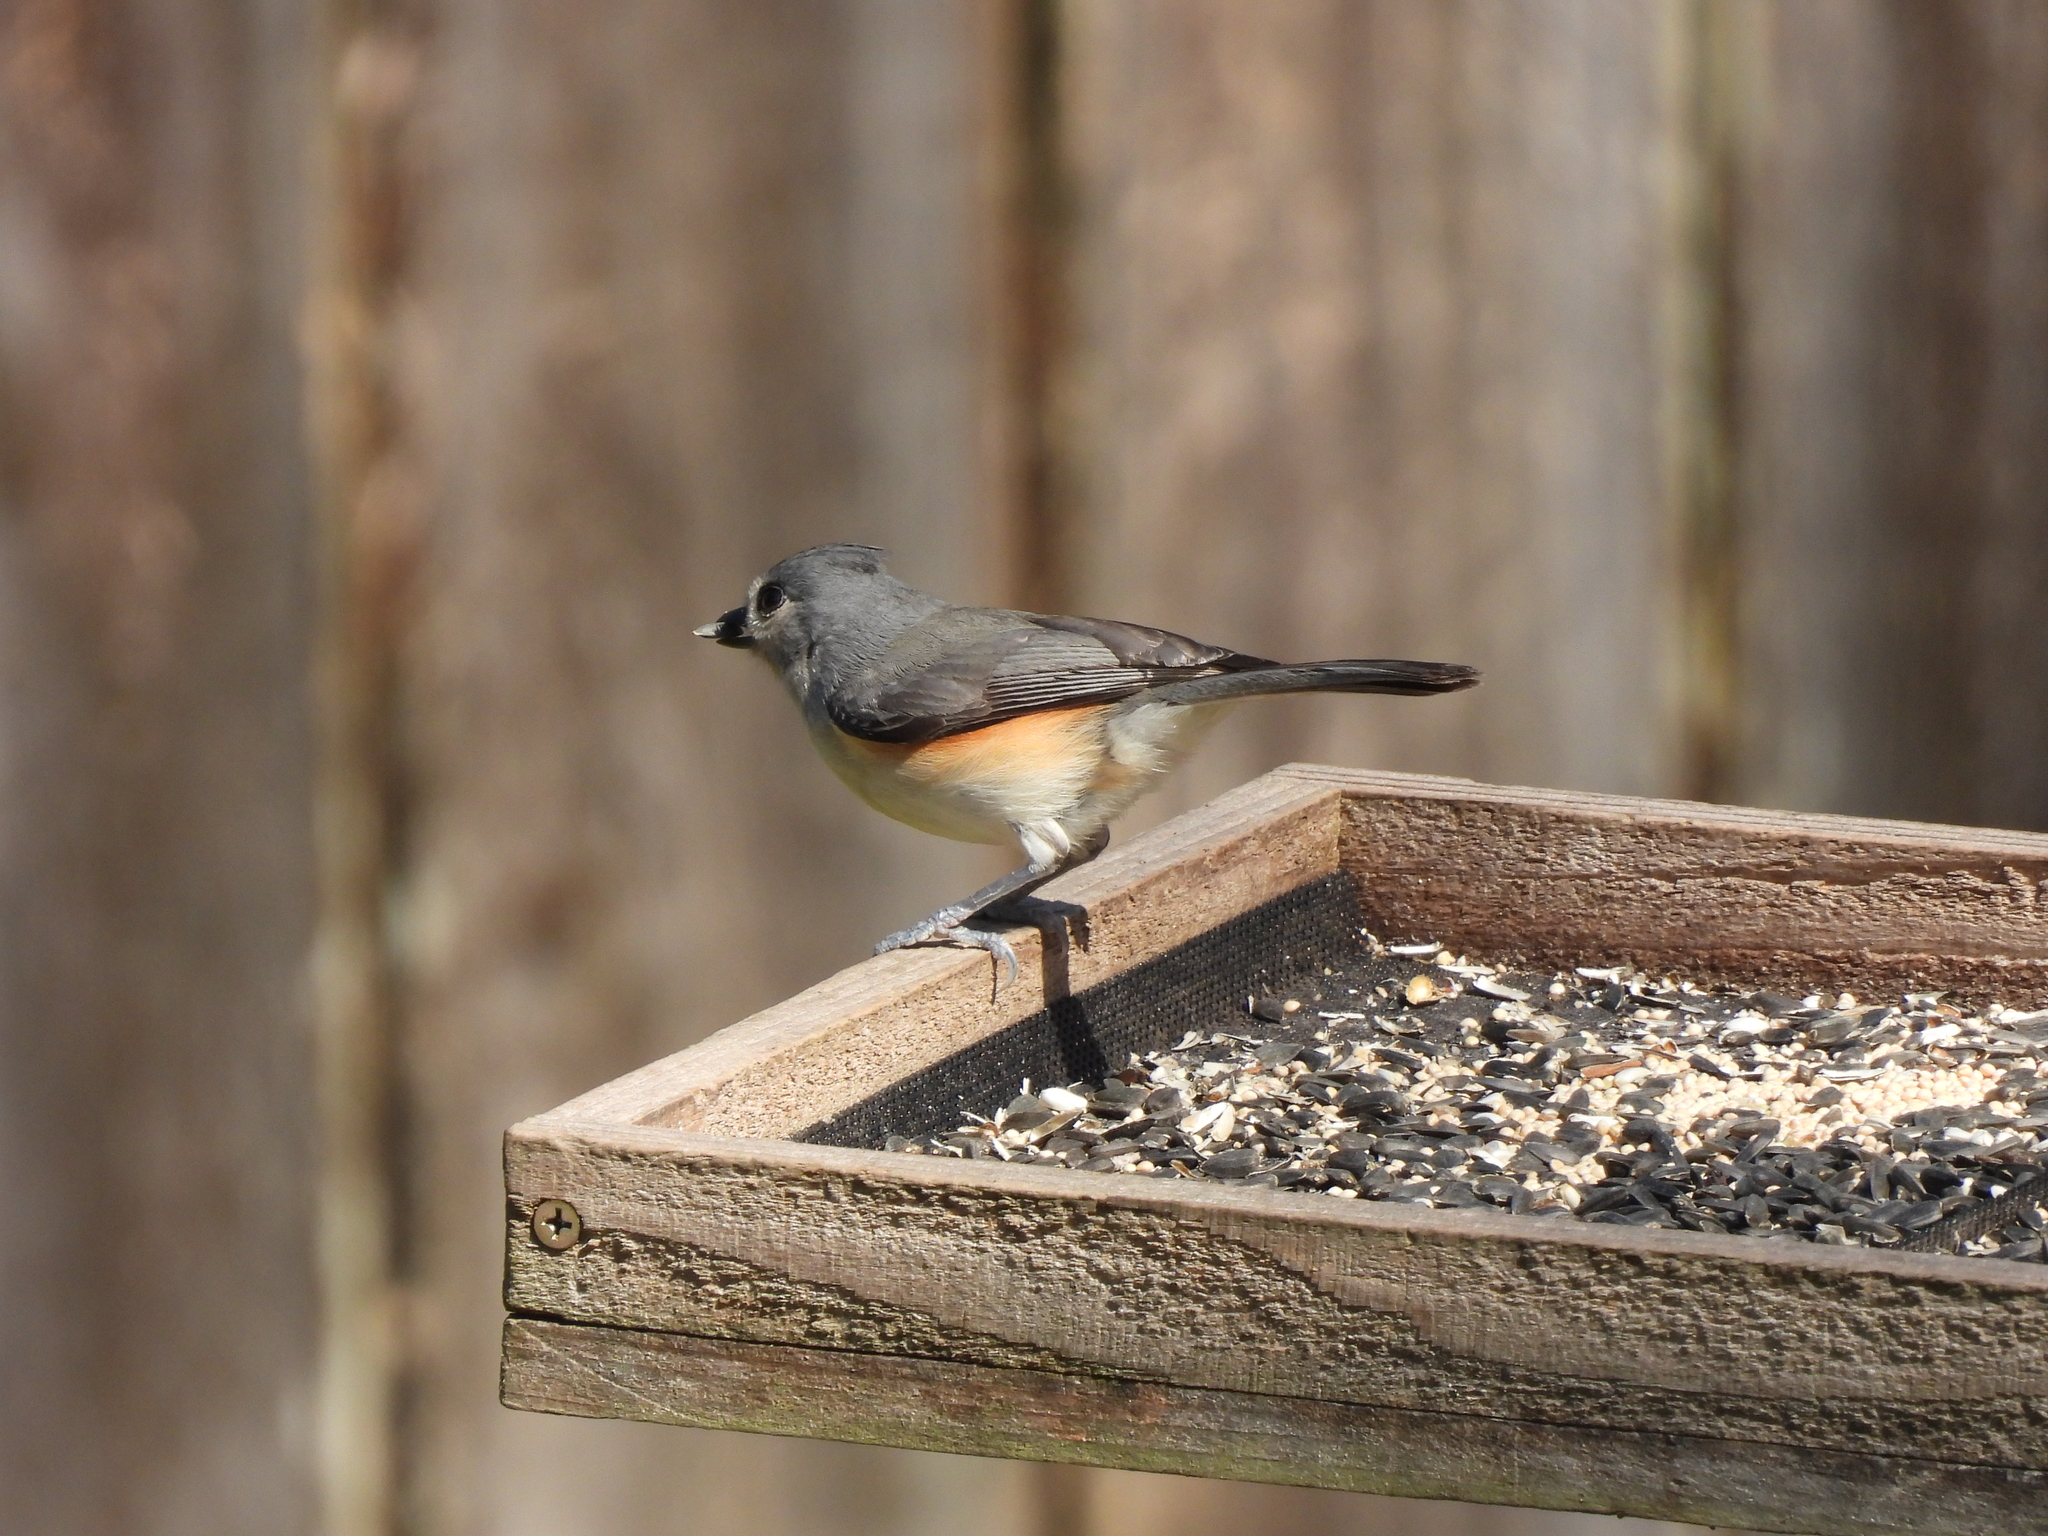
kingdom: Animalia
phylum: Chordata
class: Aves
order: Passeriformes
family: Paridae
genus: Baeolophus
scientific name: Baeolophus bicolor
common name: Tufted titmouse
